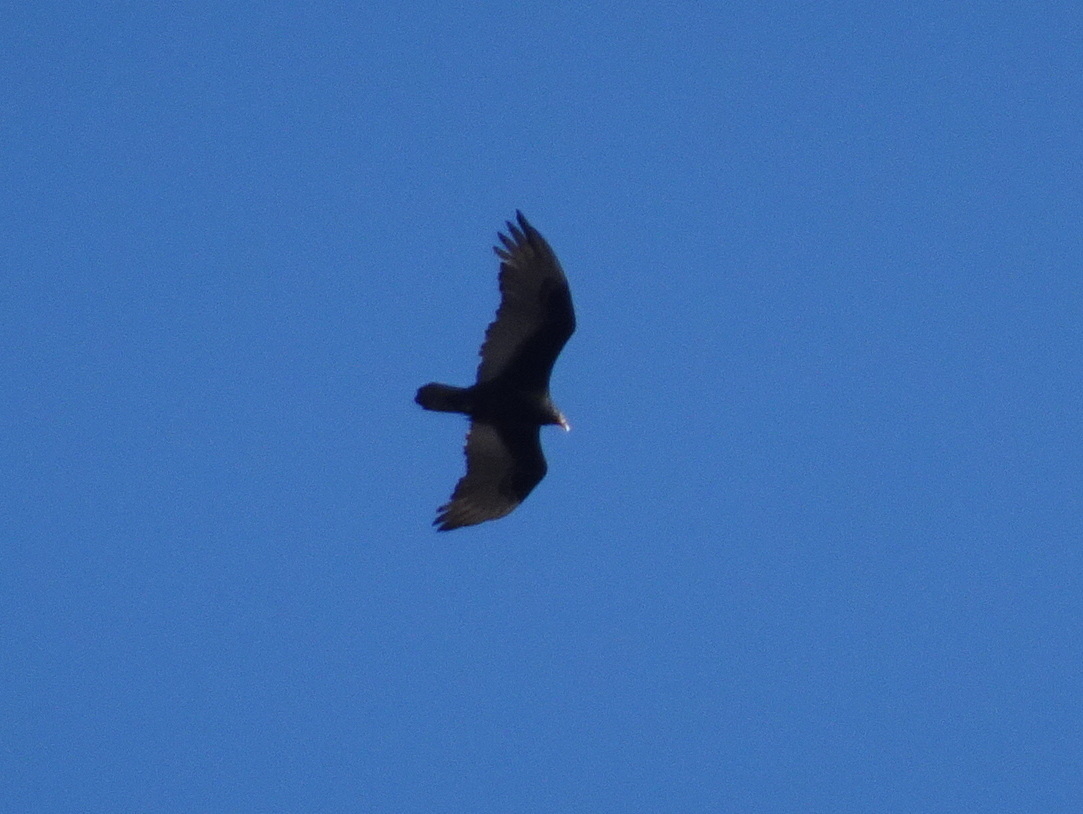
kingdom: Animalia
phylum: Chordata
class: Aves
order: Accipitriformes
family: Cathartidae
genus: Cathartes
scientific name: Cathartes aura
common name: Turkey vulture
